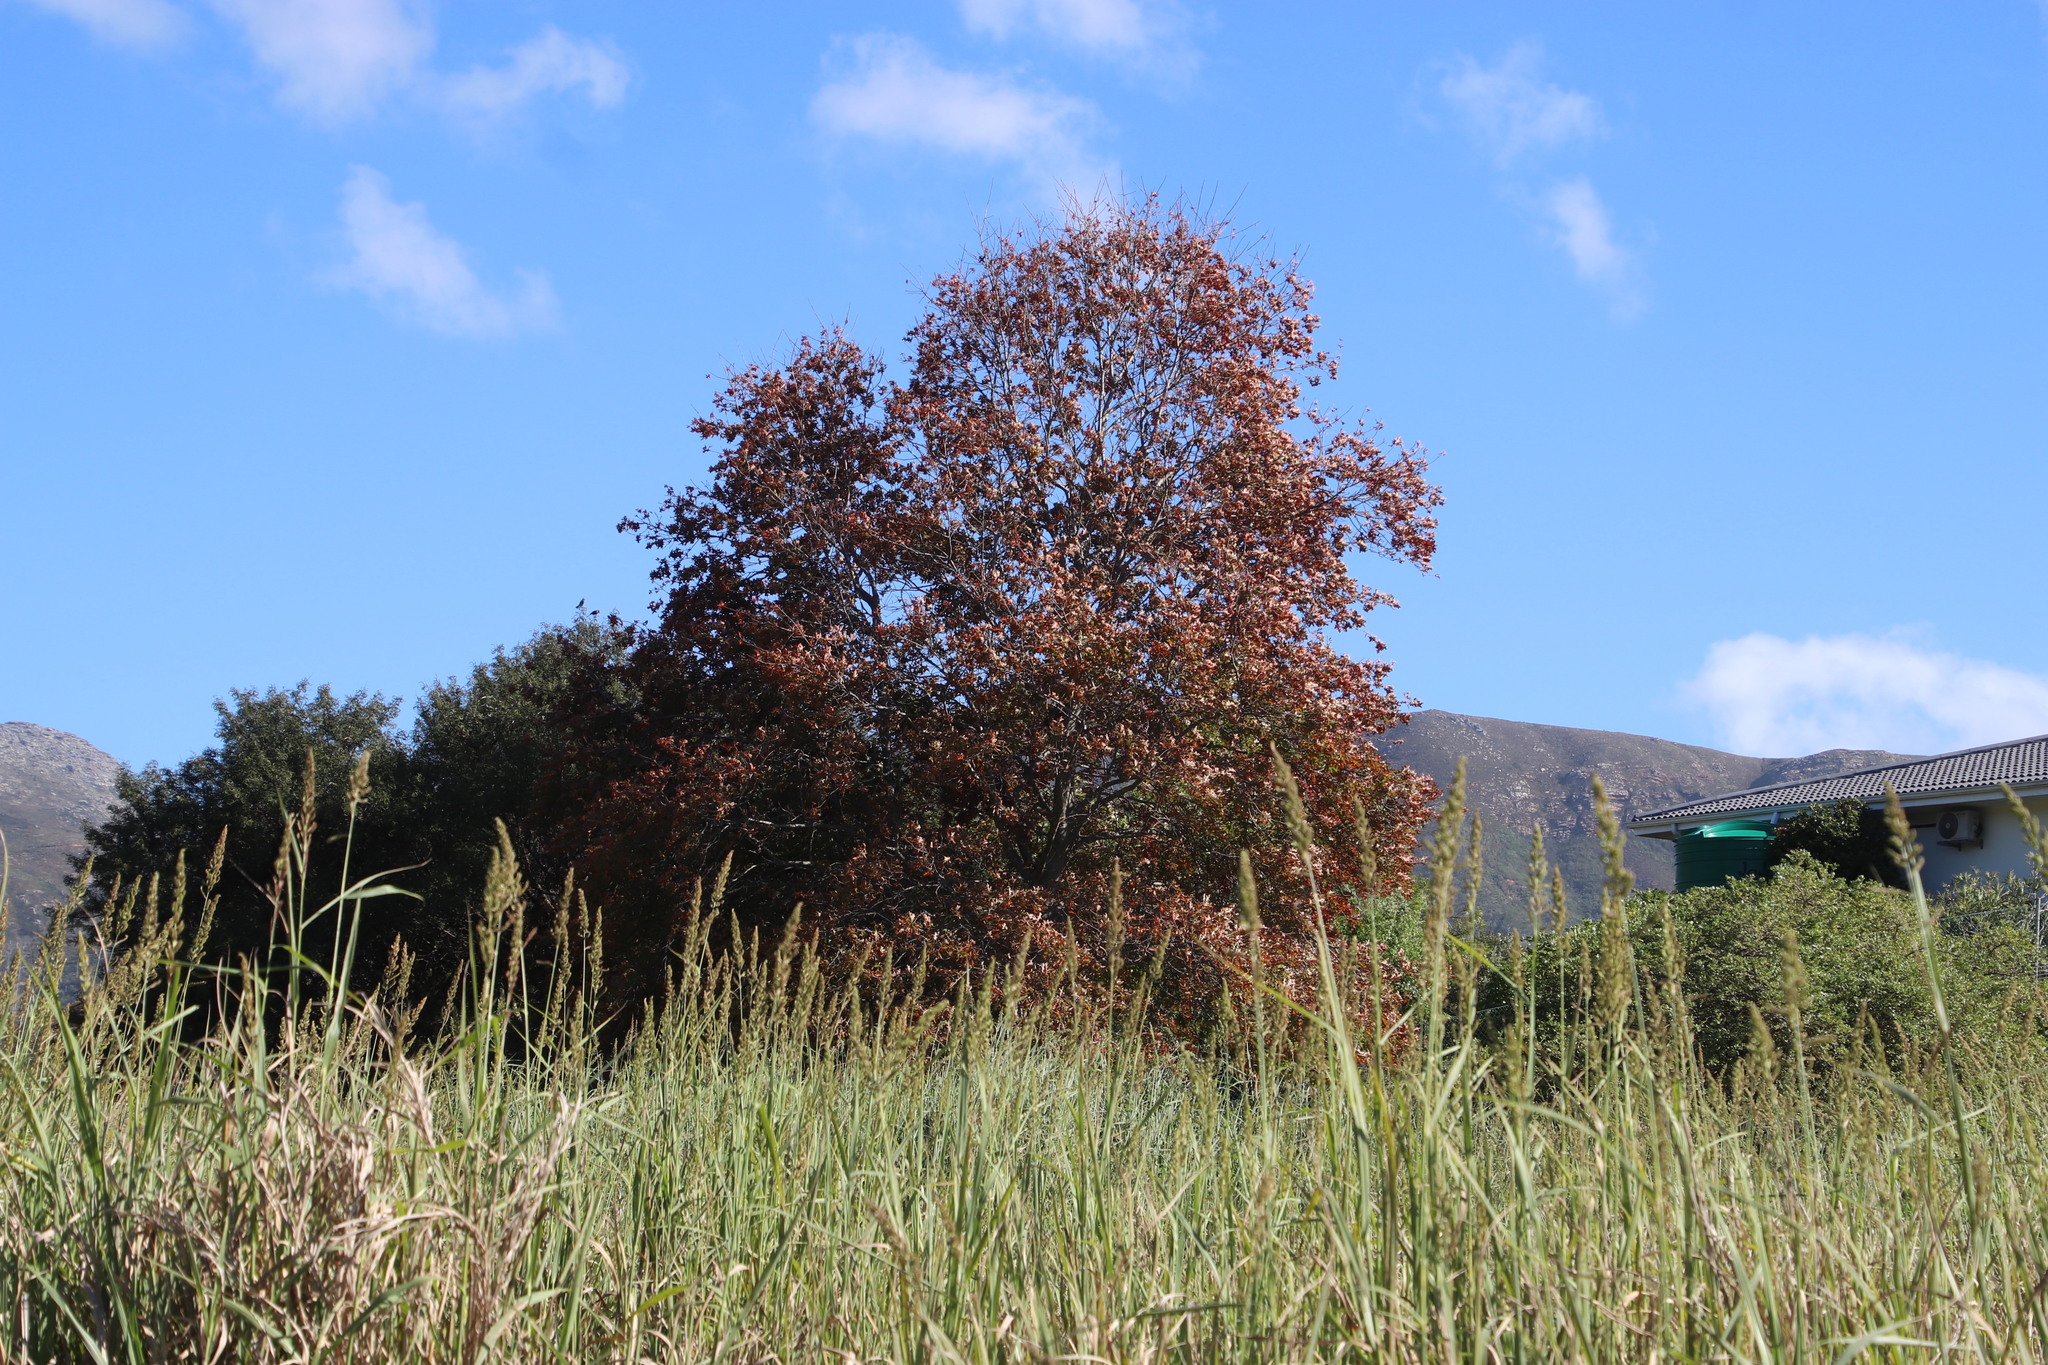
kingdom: Plantae
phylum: Tracheophyta
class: Magnoliopsida
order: Fagales
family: Fagaceae
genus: Quercus
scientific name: Quercus palustris
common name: Pin oak
